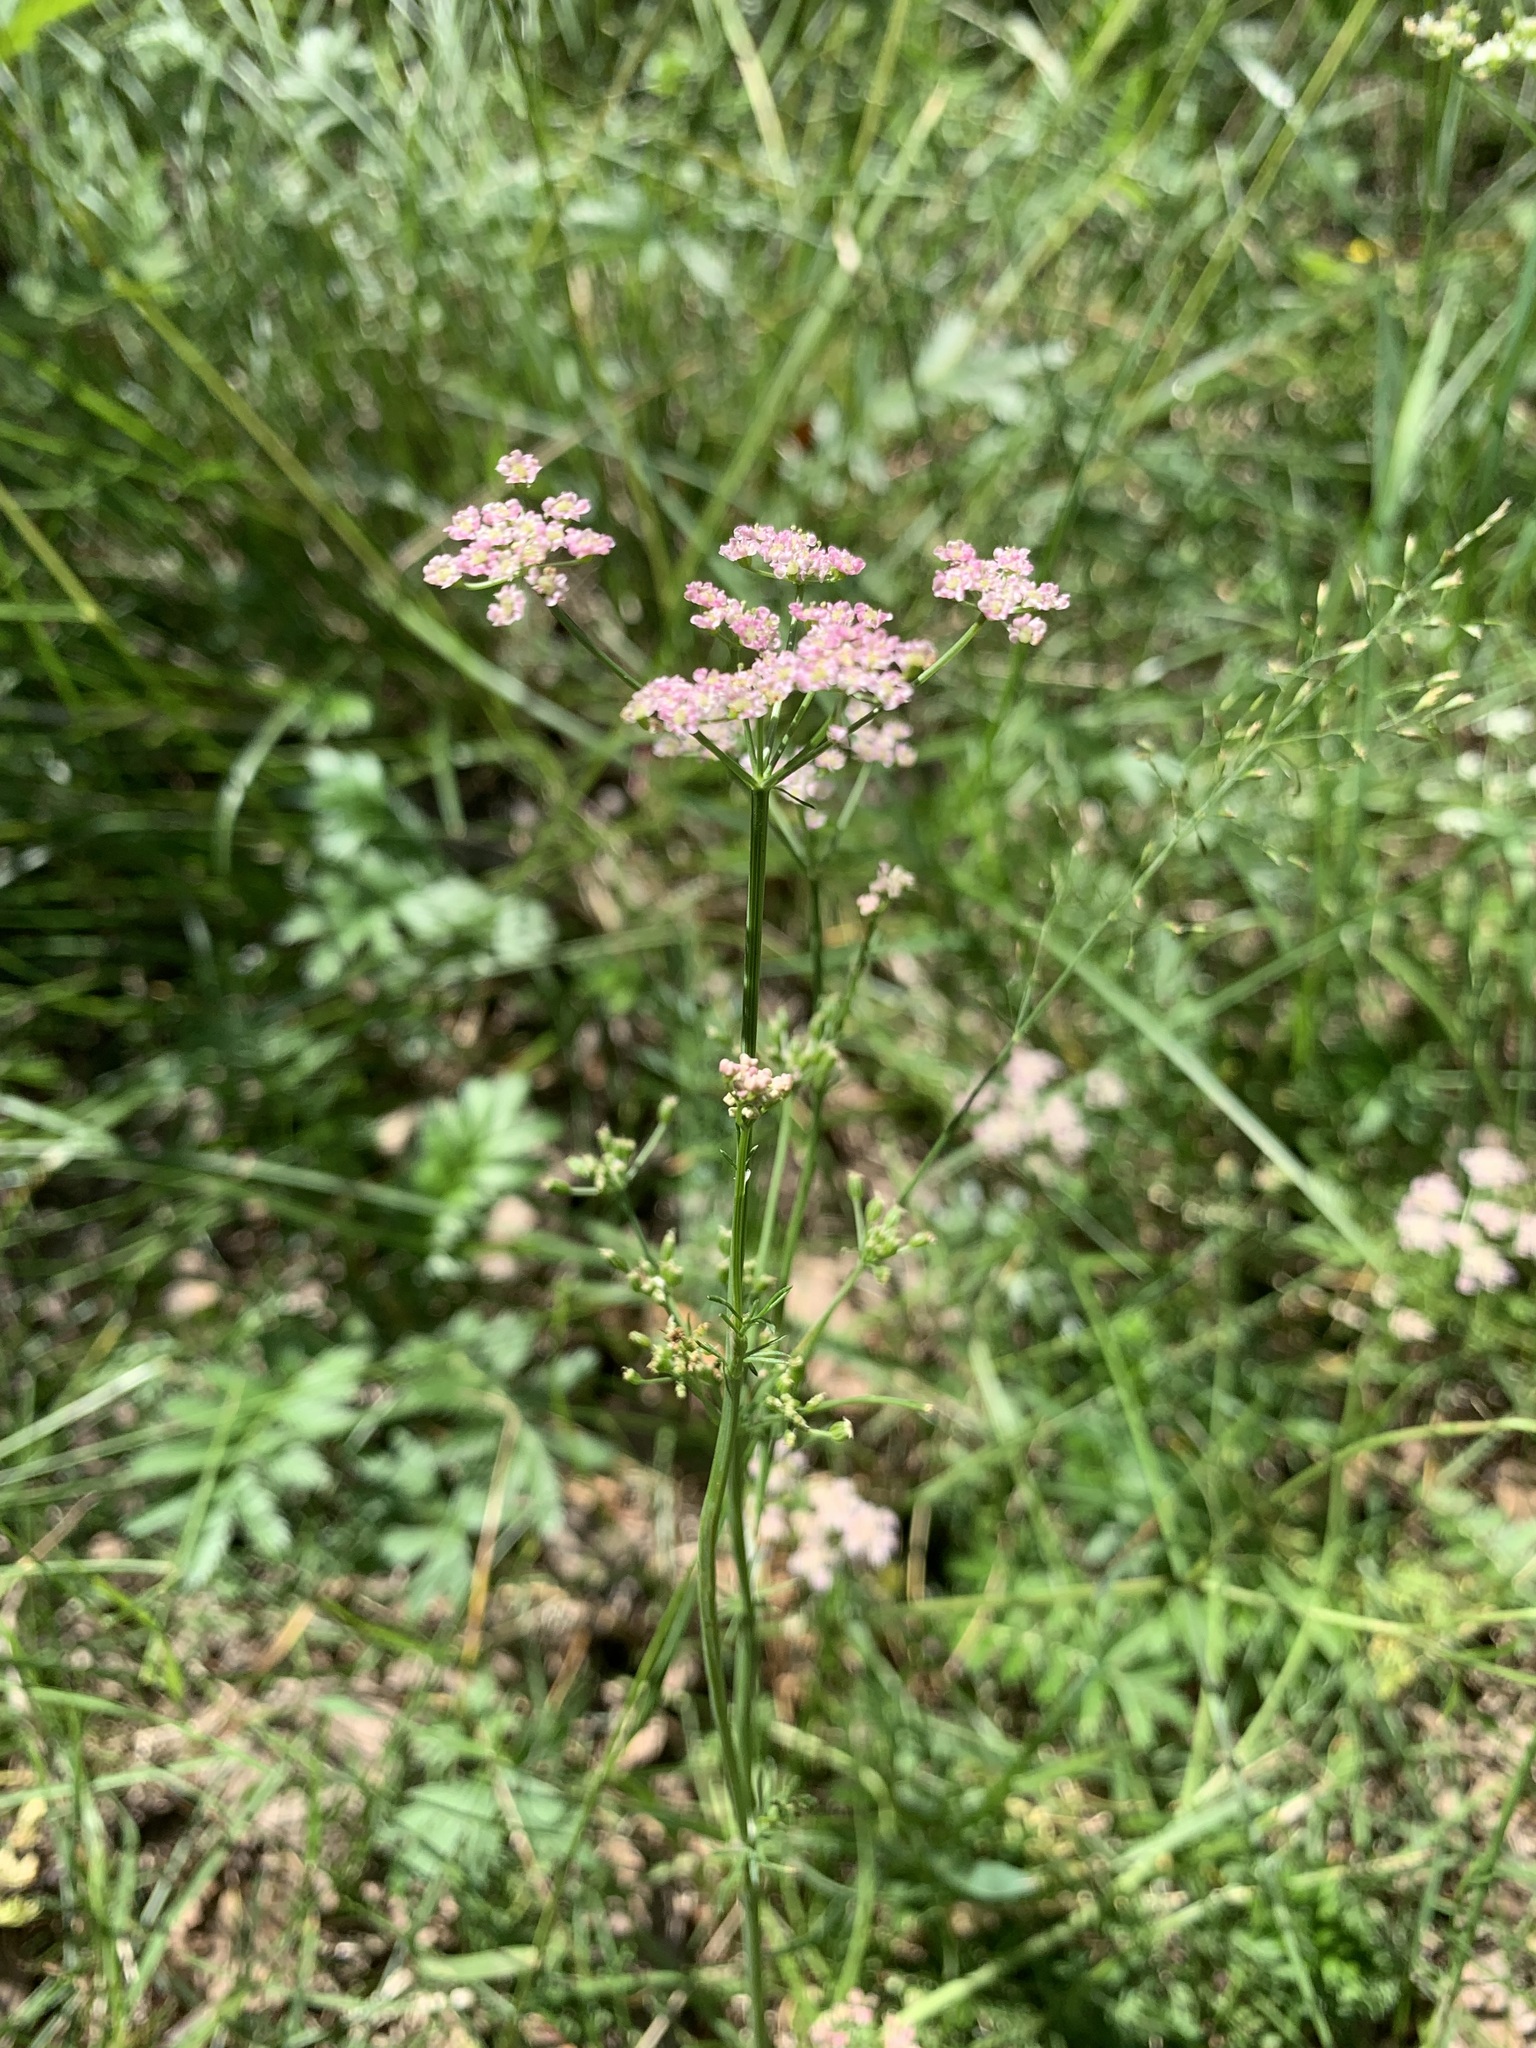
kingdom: Plantae
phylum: Tracheophyta
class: Magnoliopsida
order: Apiales
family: Apiaceae
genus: Carum
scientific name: Carum carvi
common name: Caraway
